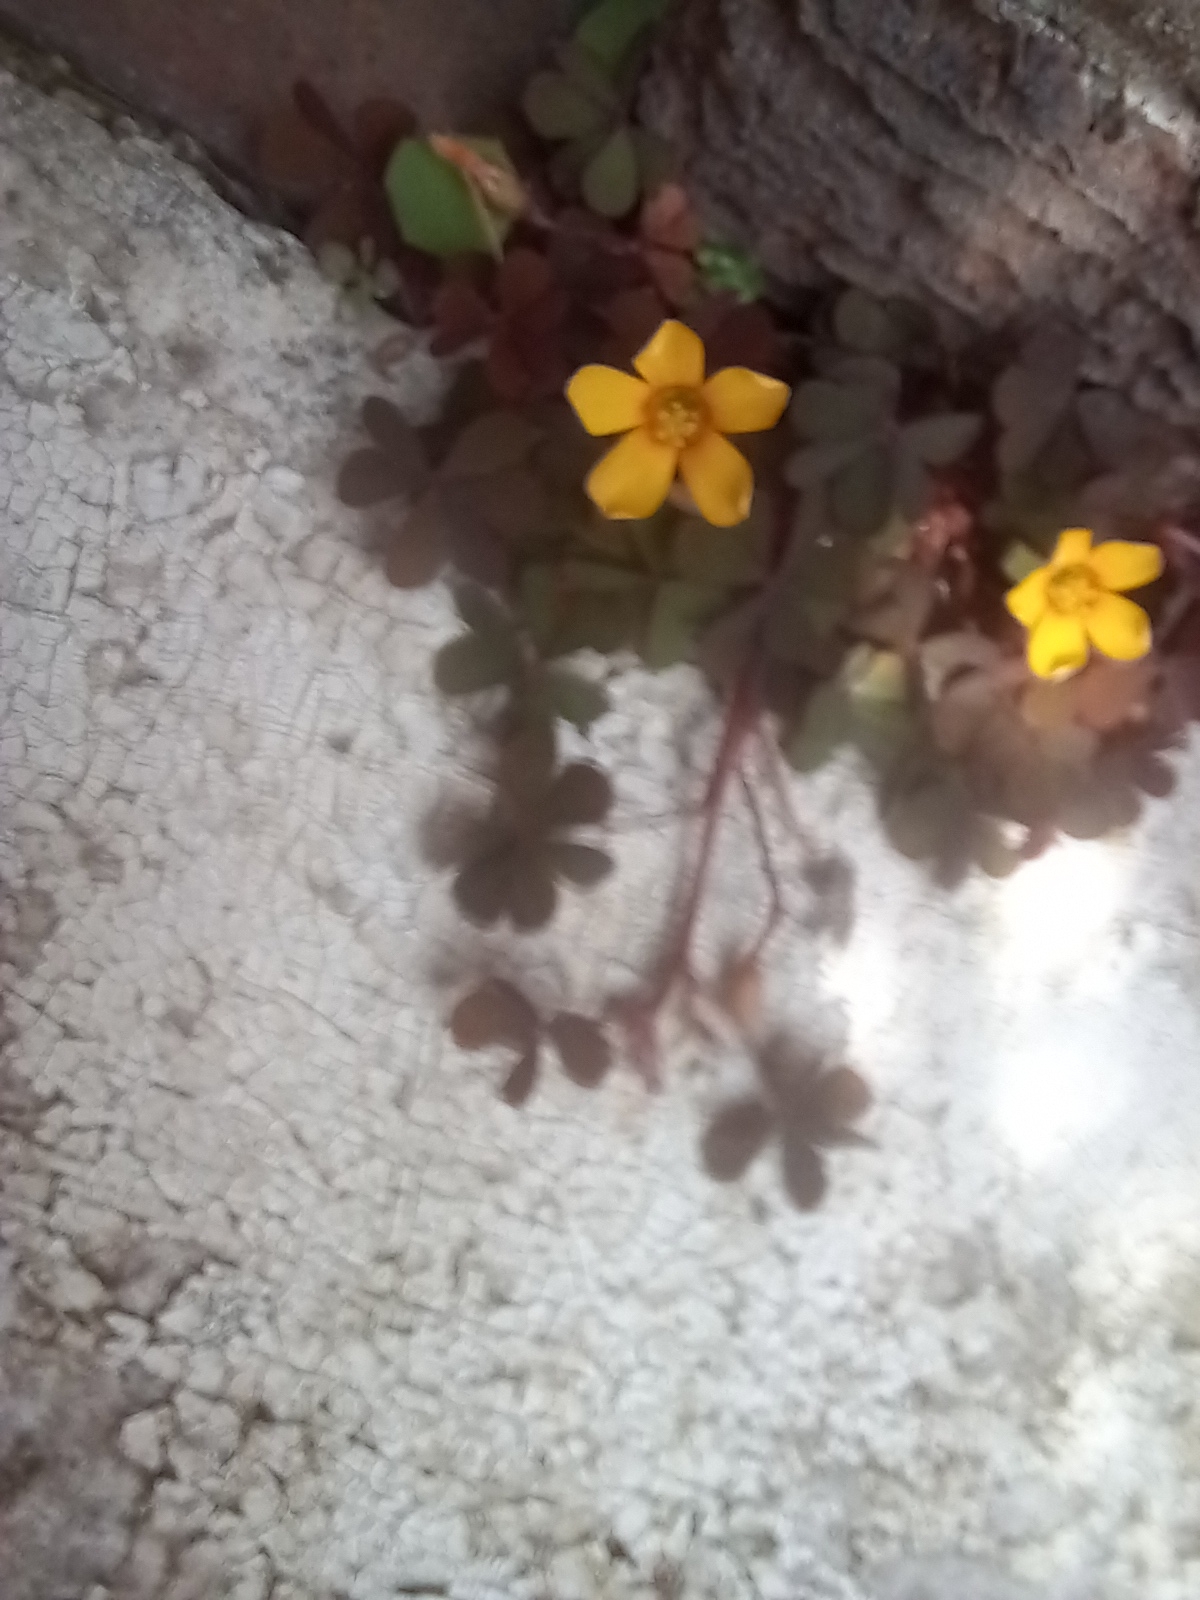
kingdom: Plantae
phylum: Tracheophyta
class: Magnoliopsida
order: Oxalidales
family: Oxalidaceae
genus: Oxalis
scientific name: Oxalis corniculata
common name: Procumbent yellow-sorrel
